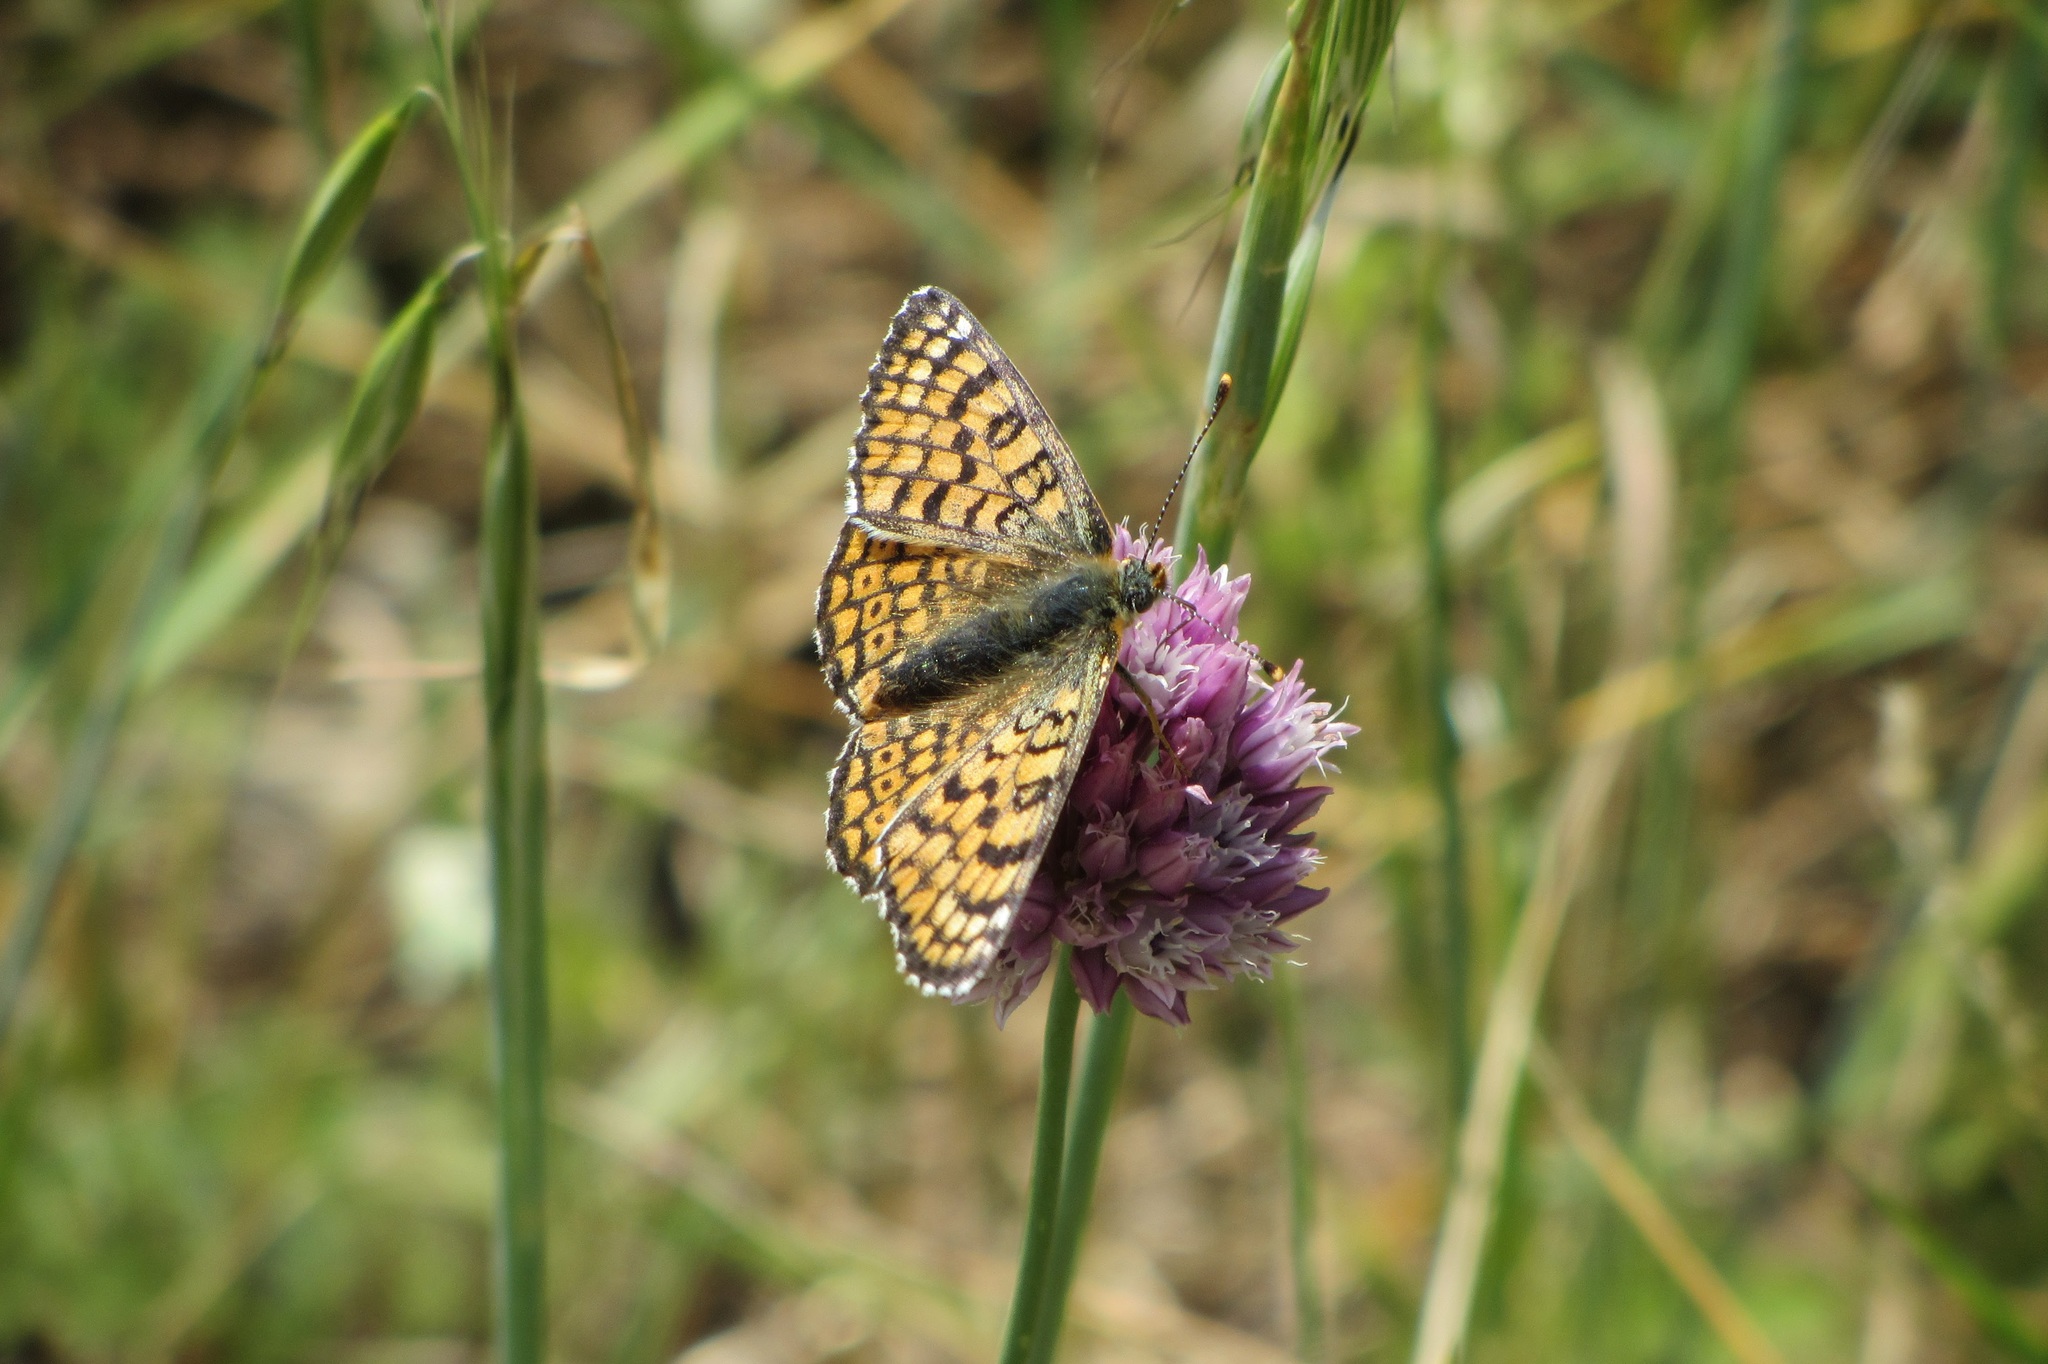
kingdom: Animalia
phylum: Arthropoda
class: Insecta
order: Lepidoptera
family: Nymphalidae
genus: Melitaea
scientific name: Melitaea cinxia
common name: Glanville fritillary
